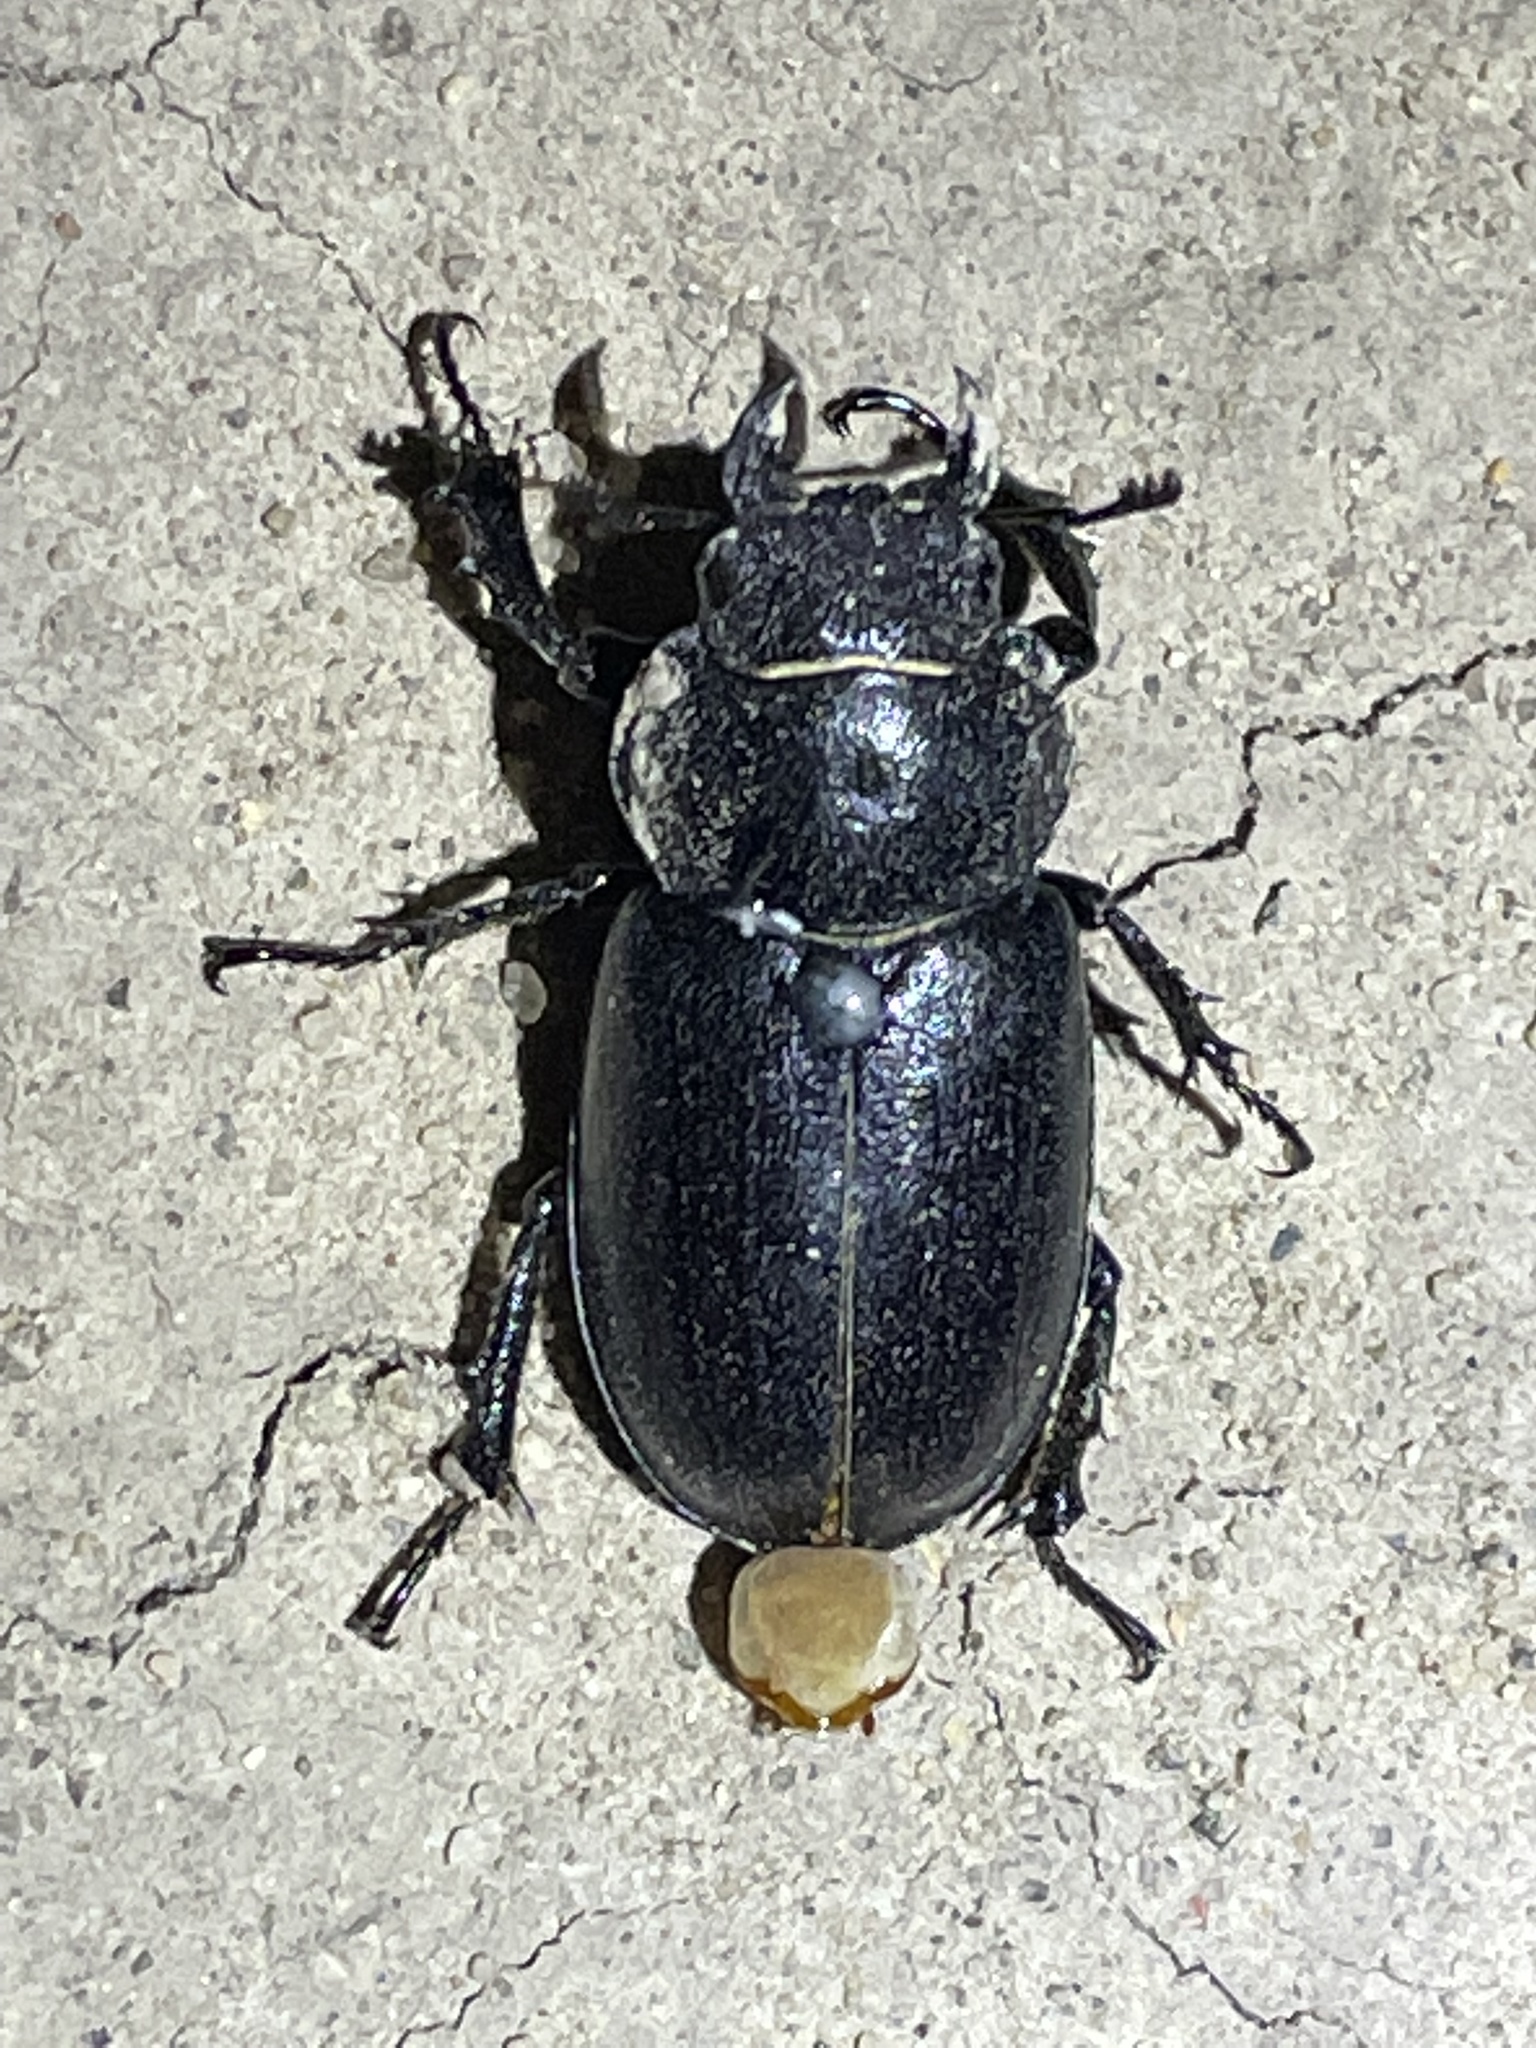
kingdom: Animalia
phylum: Arthropoda
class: Insecta
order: Coleoptera
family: Lucanidae
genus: Lucanus
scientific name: Lucanus mazama
